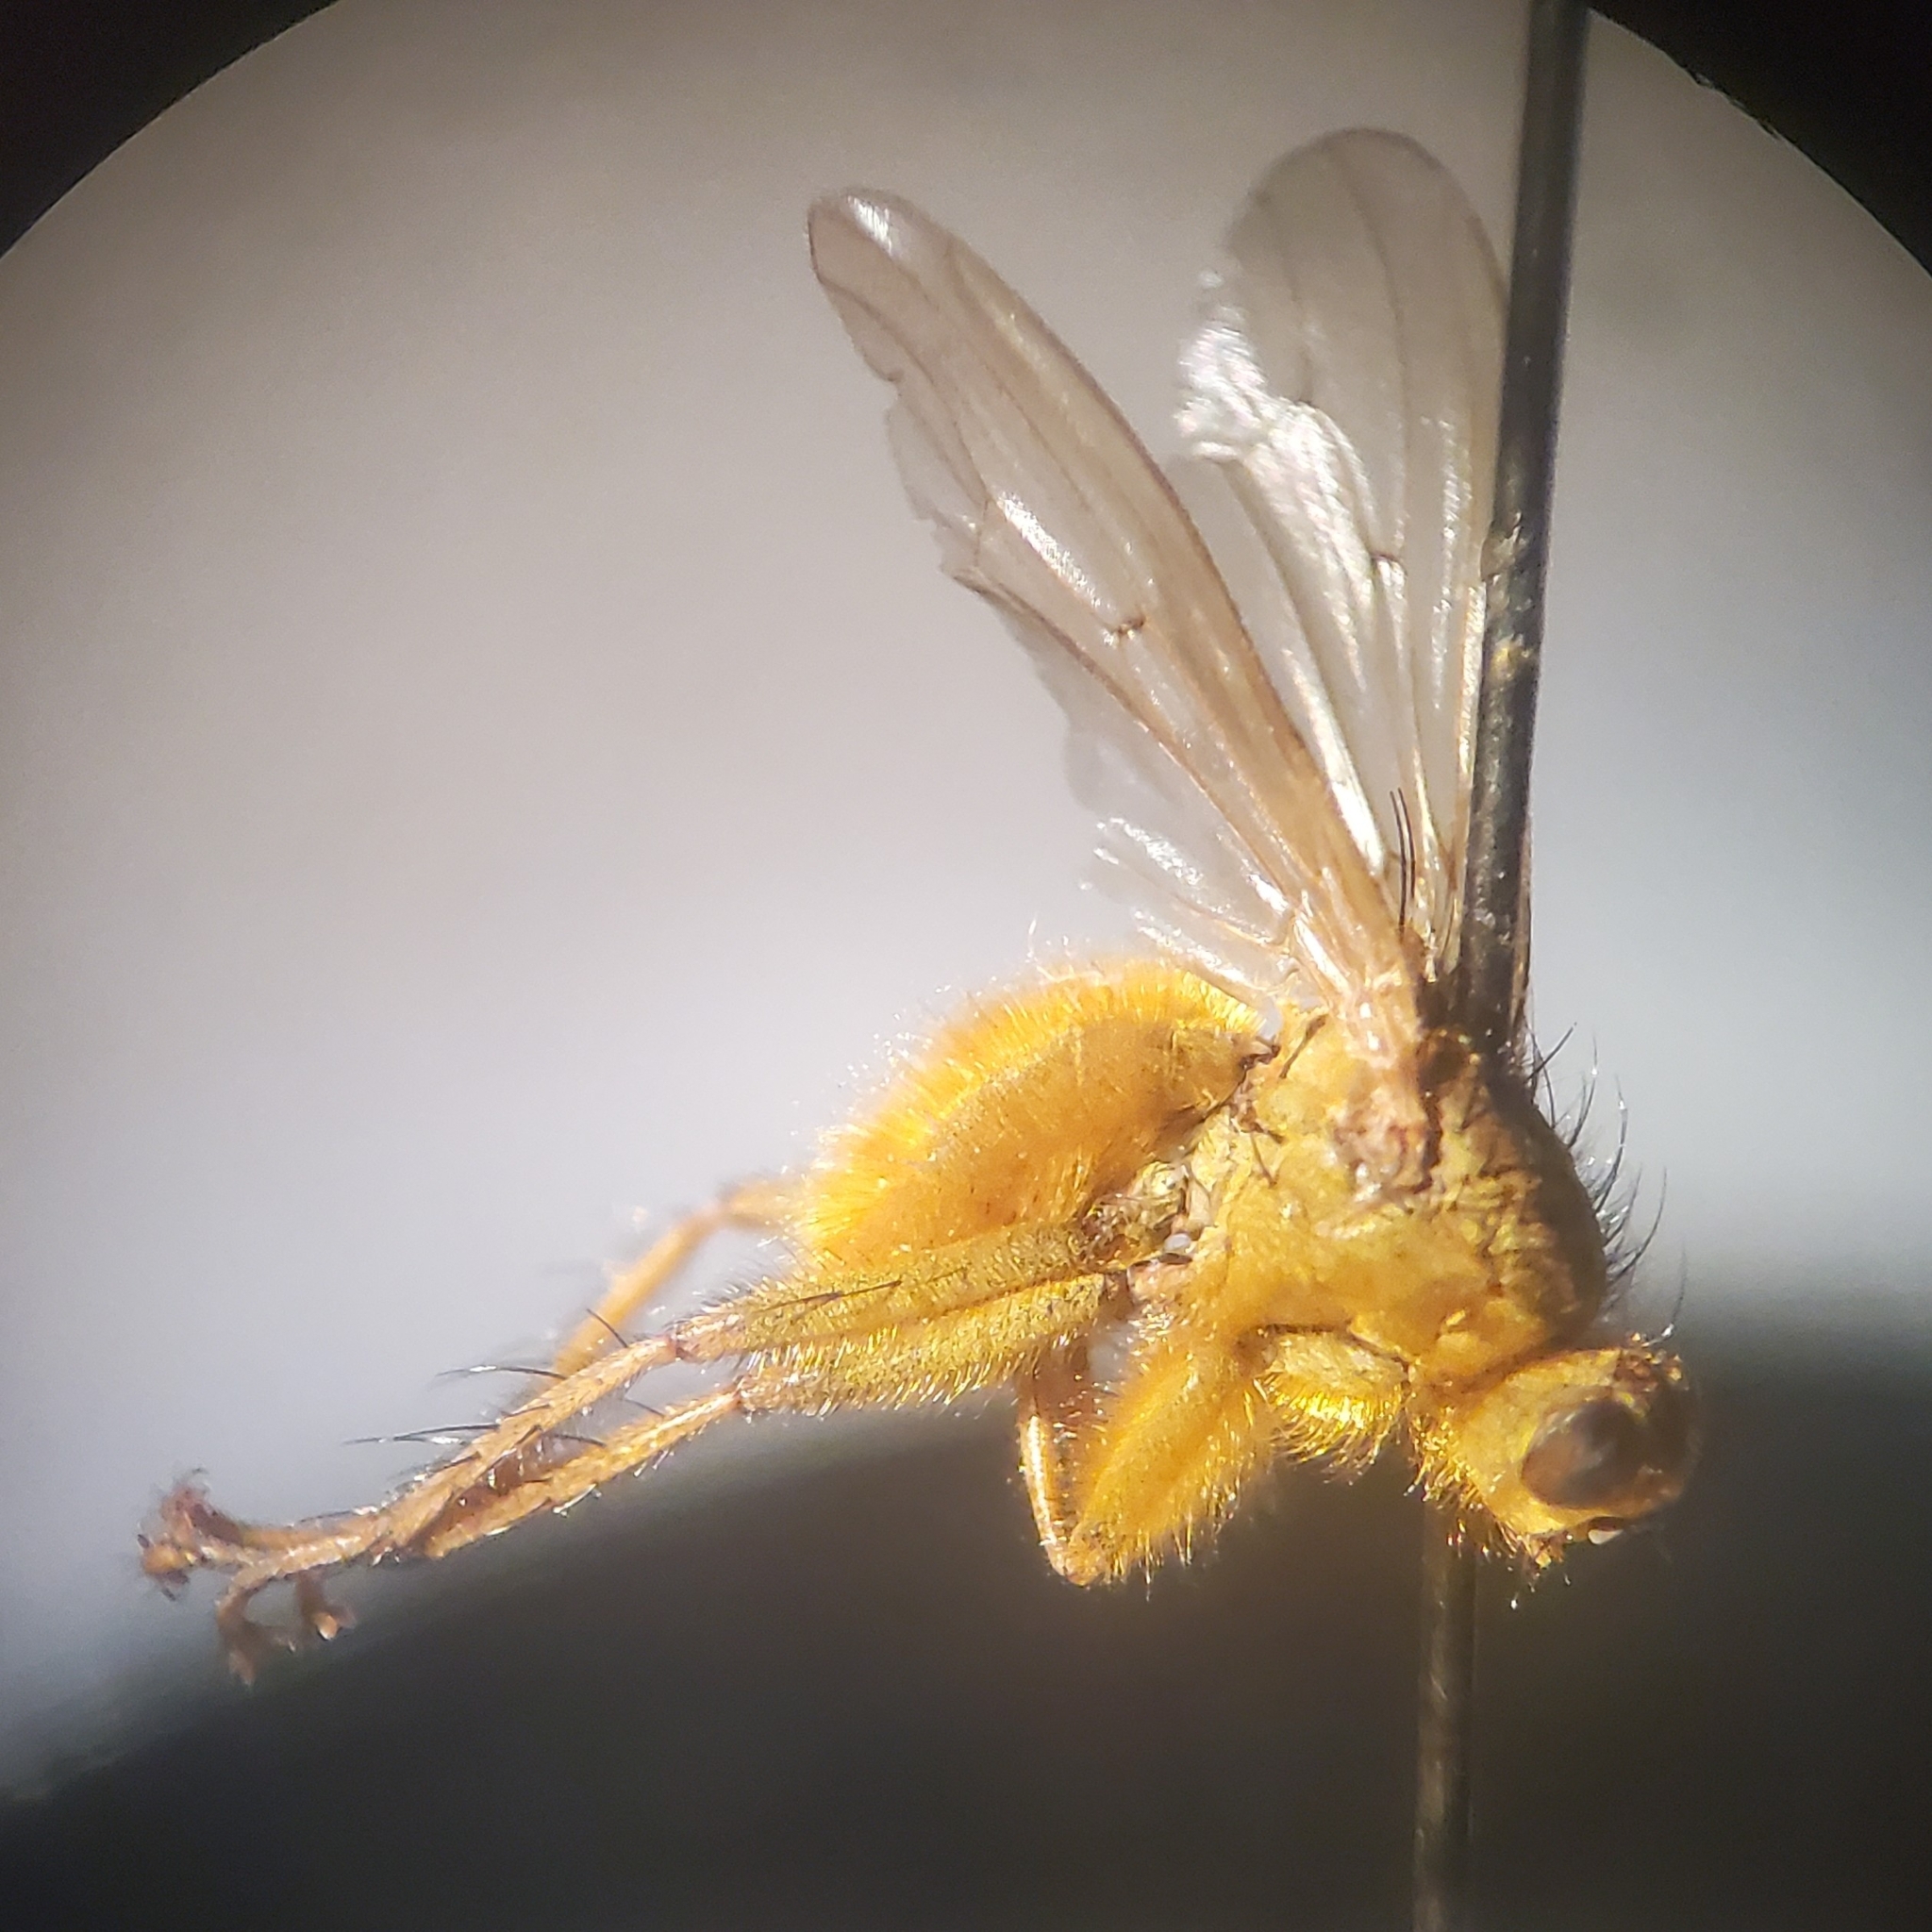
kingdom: Animalia
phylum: Arthropoda
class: Insecta
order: Diptera
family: Scathophagidae
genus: Scathophaga
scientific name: Scathophaga stercoraria
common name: Yellow dung fly
